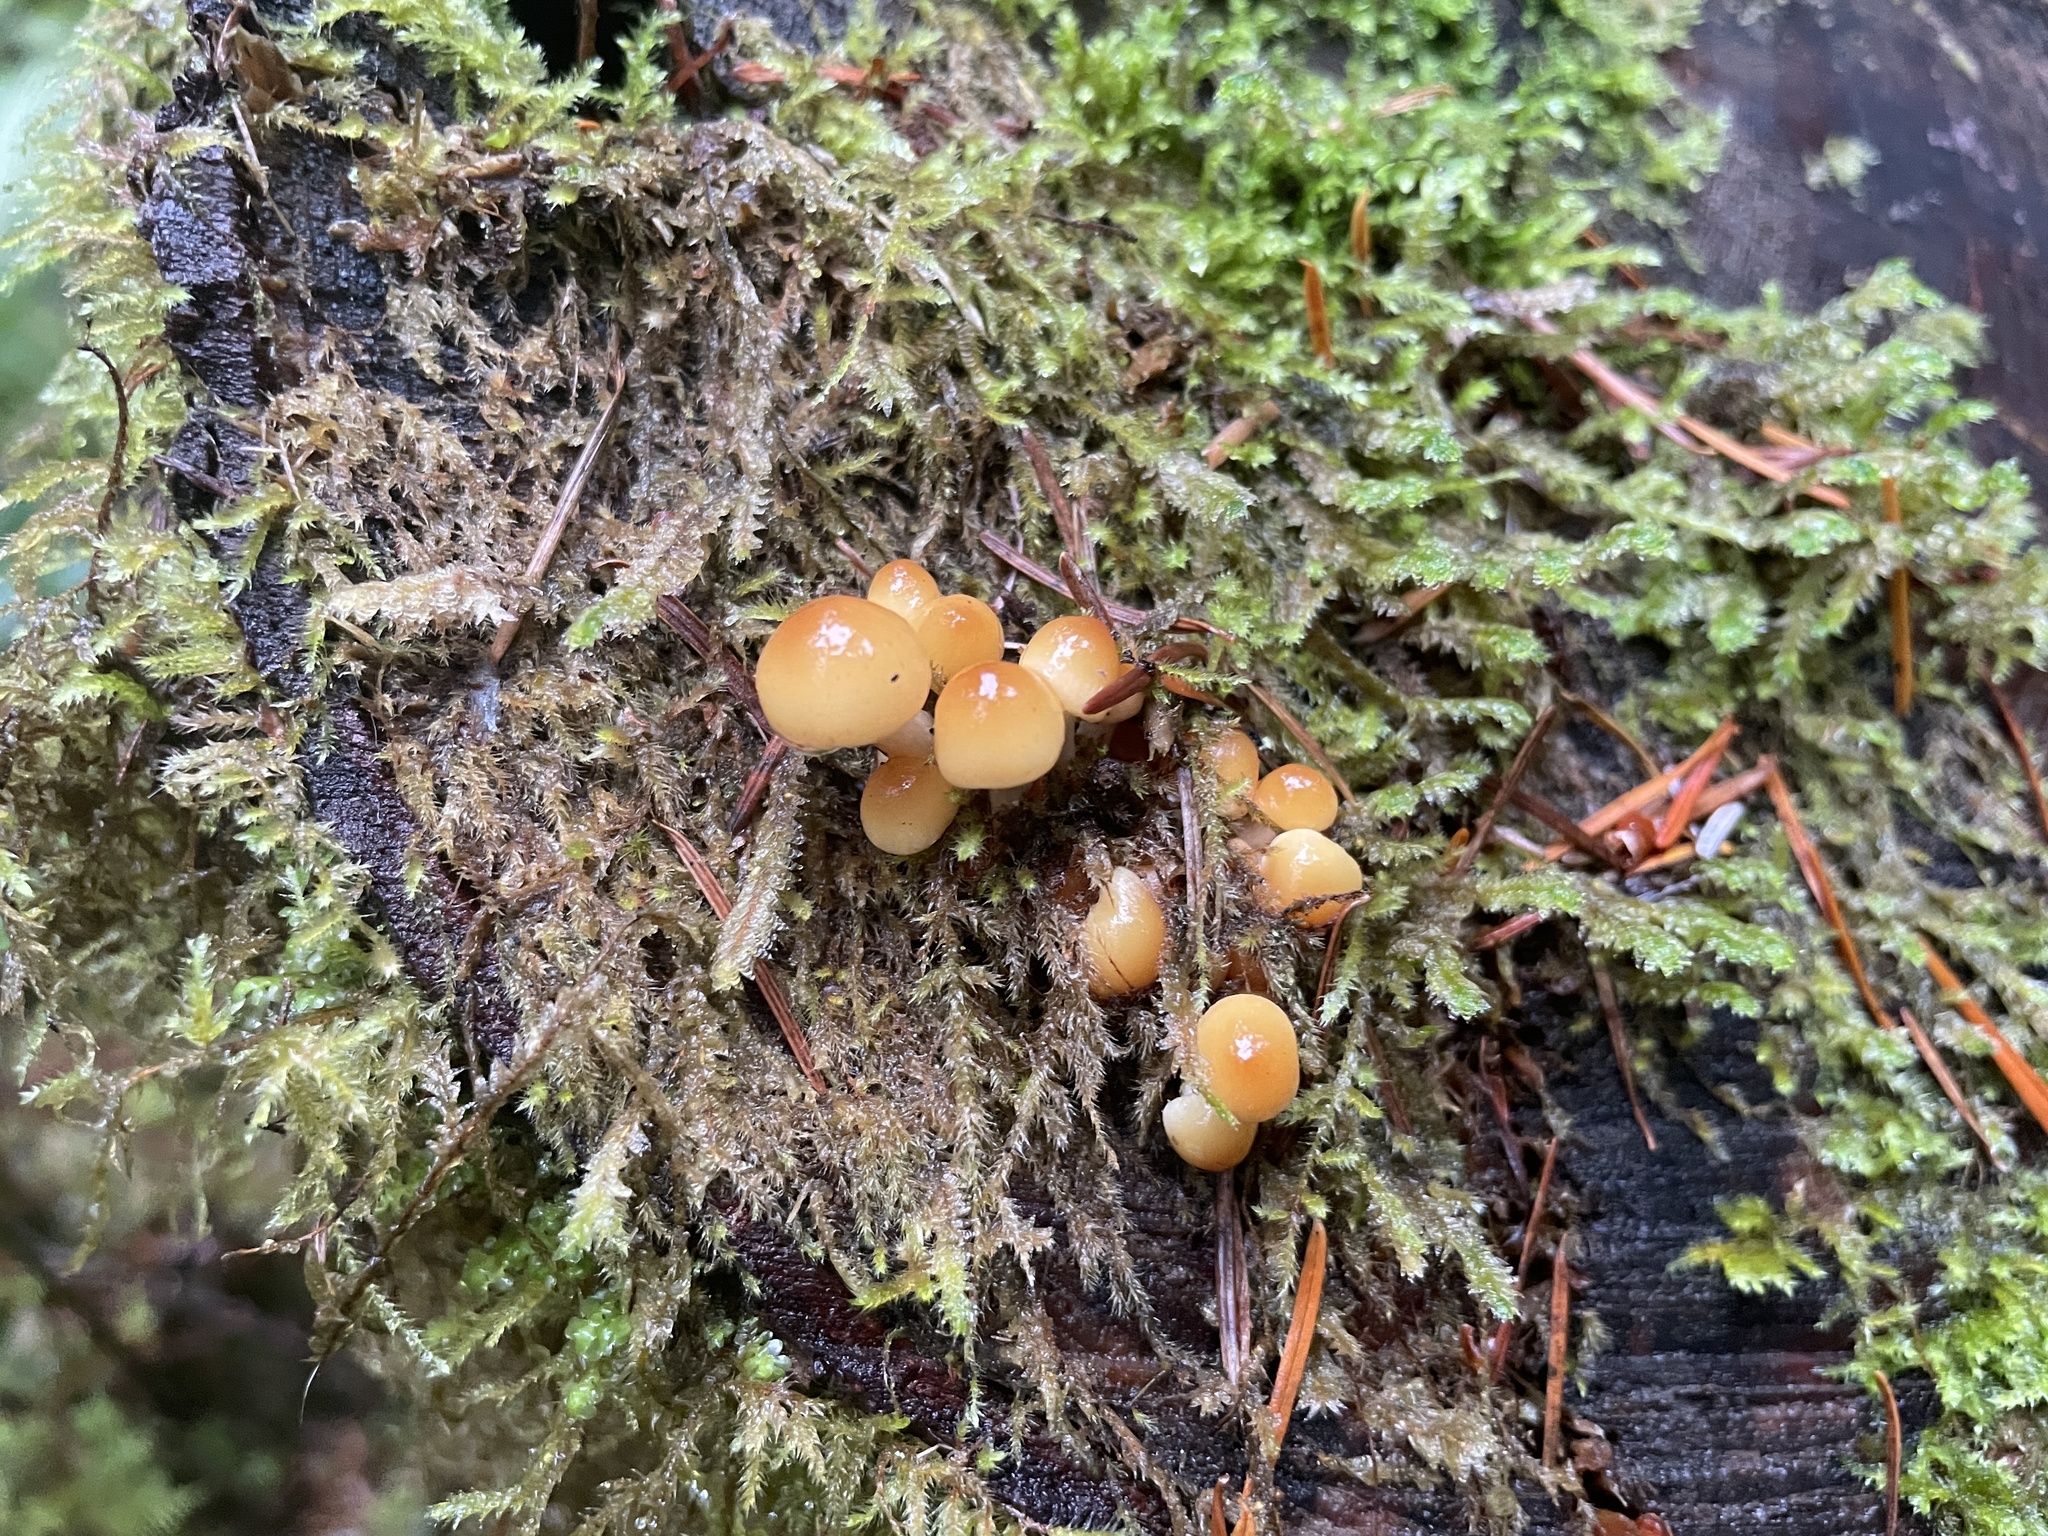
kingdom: Fungi
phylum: Basidiomycota
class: Agaricomycetes
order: Agaricales
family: Strophariaceae
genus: Hypholoma
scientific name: Hypholoma capnoides
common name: Conifer tuft
